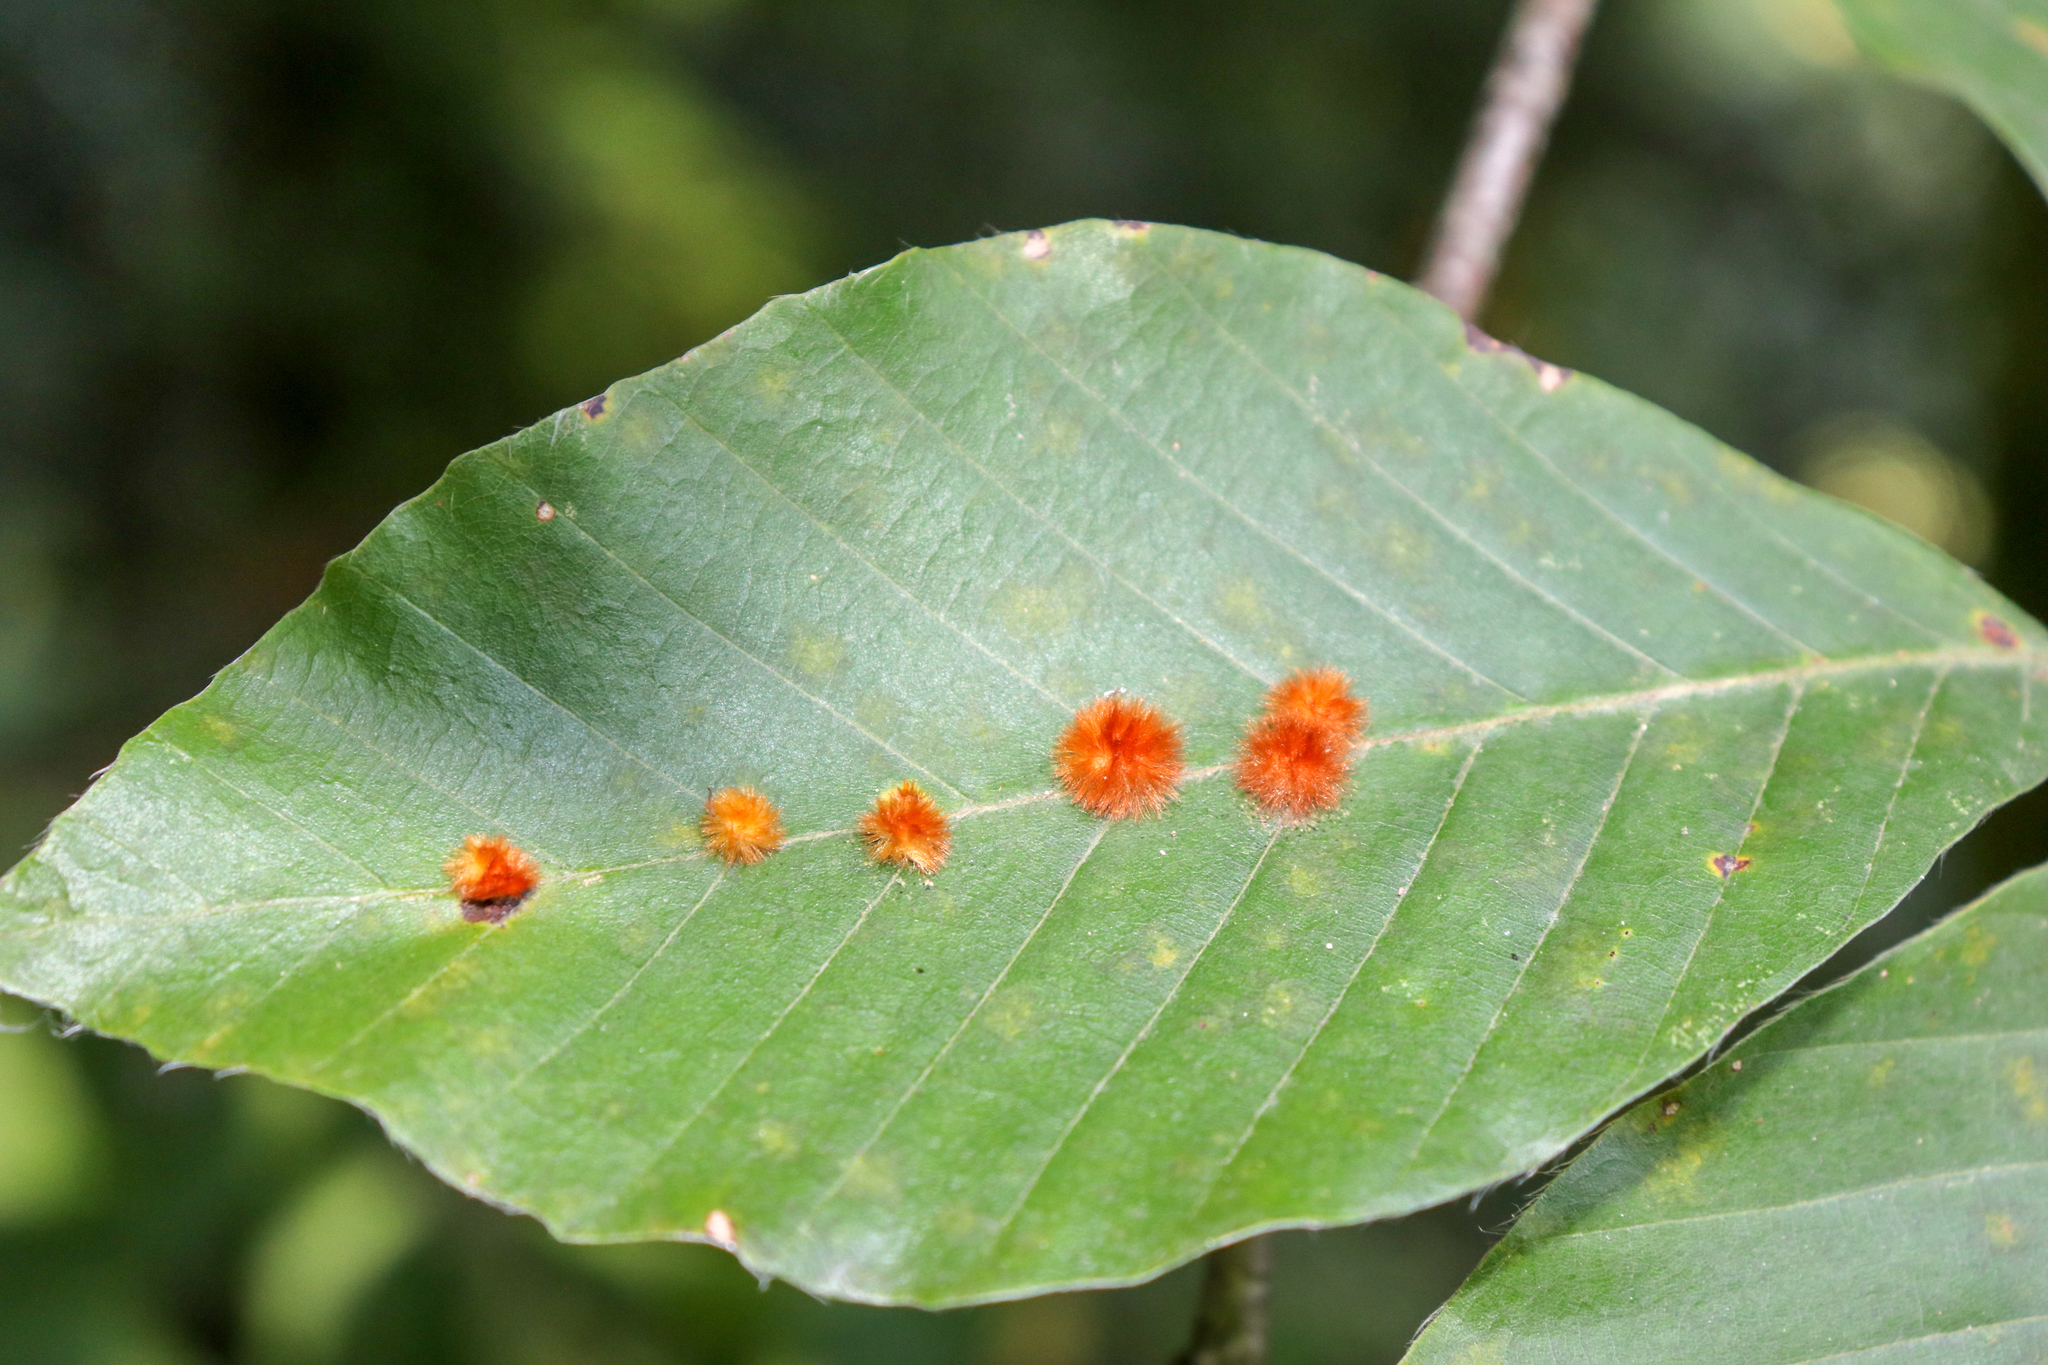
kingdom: Animalia
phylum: Arthropoda
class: Insecta
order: Diptera
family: Cecidomyiidae
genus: Hartigiola
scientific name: Hartigiola annulipes
